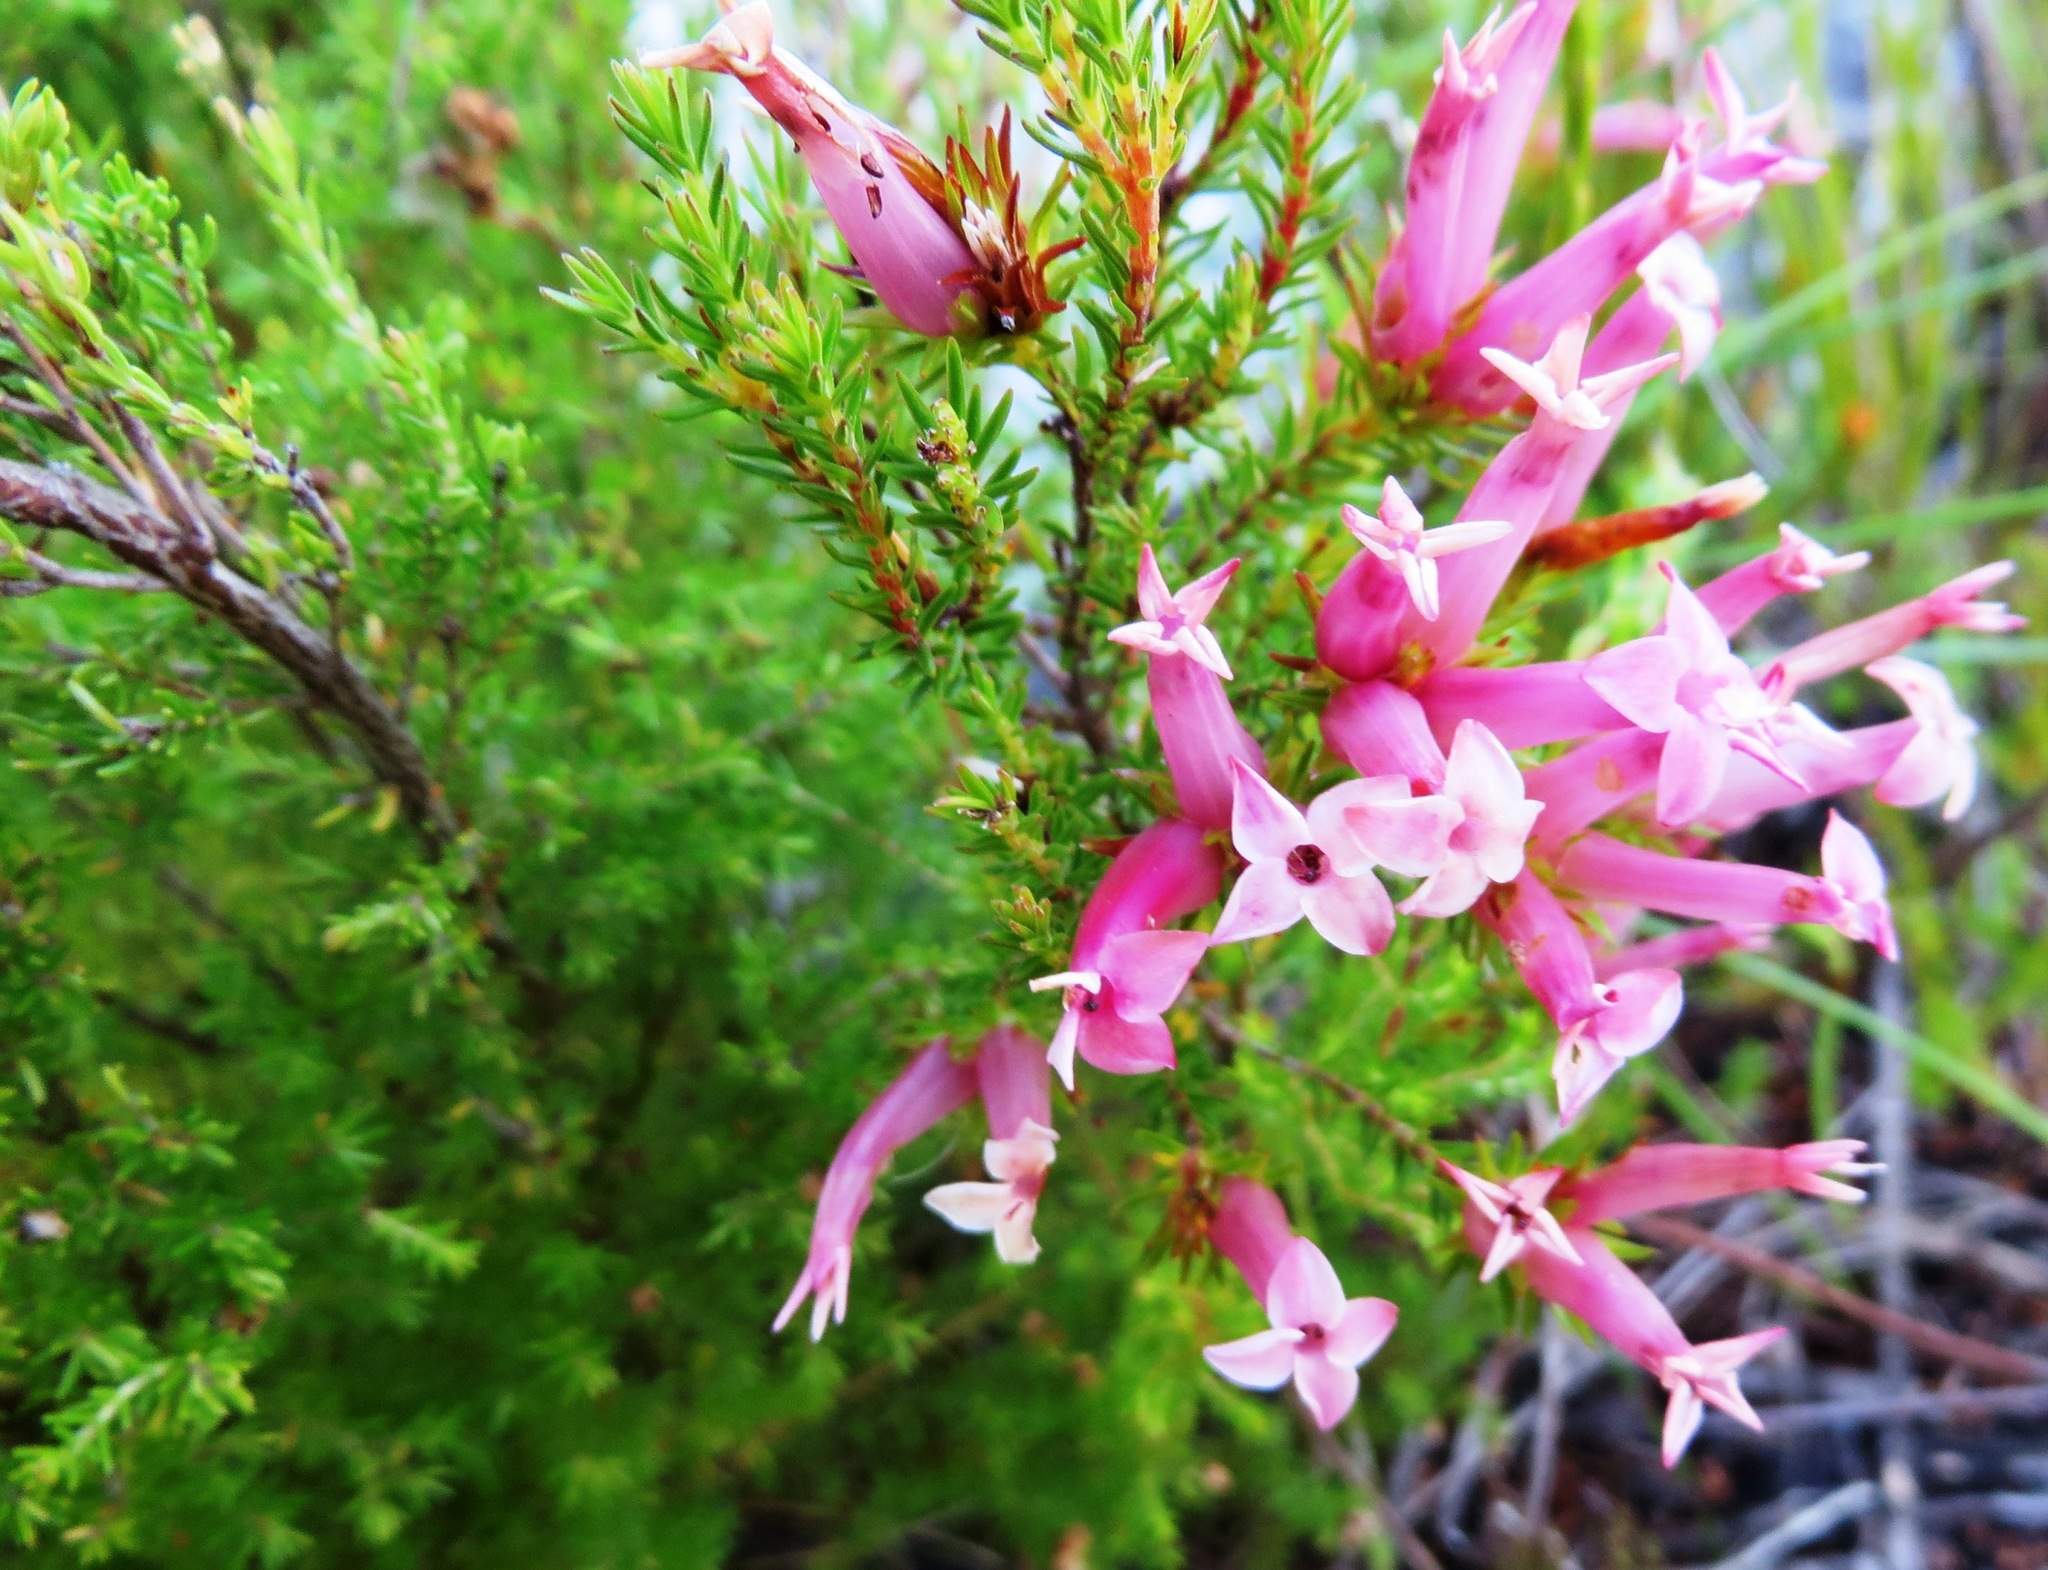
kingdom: Plantae
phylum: Tracheophyta
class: Magnoliopsida
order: Ericales
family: Ericaceae
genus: Erica
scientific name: Erica praenitens
